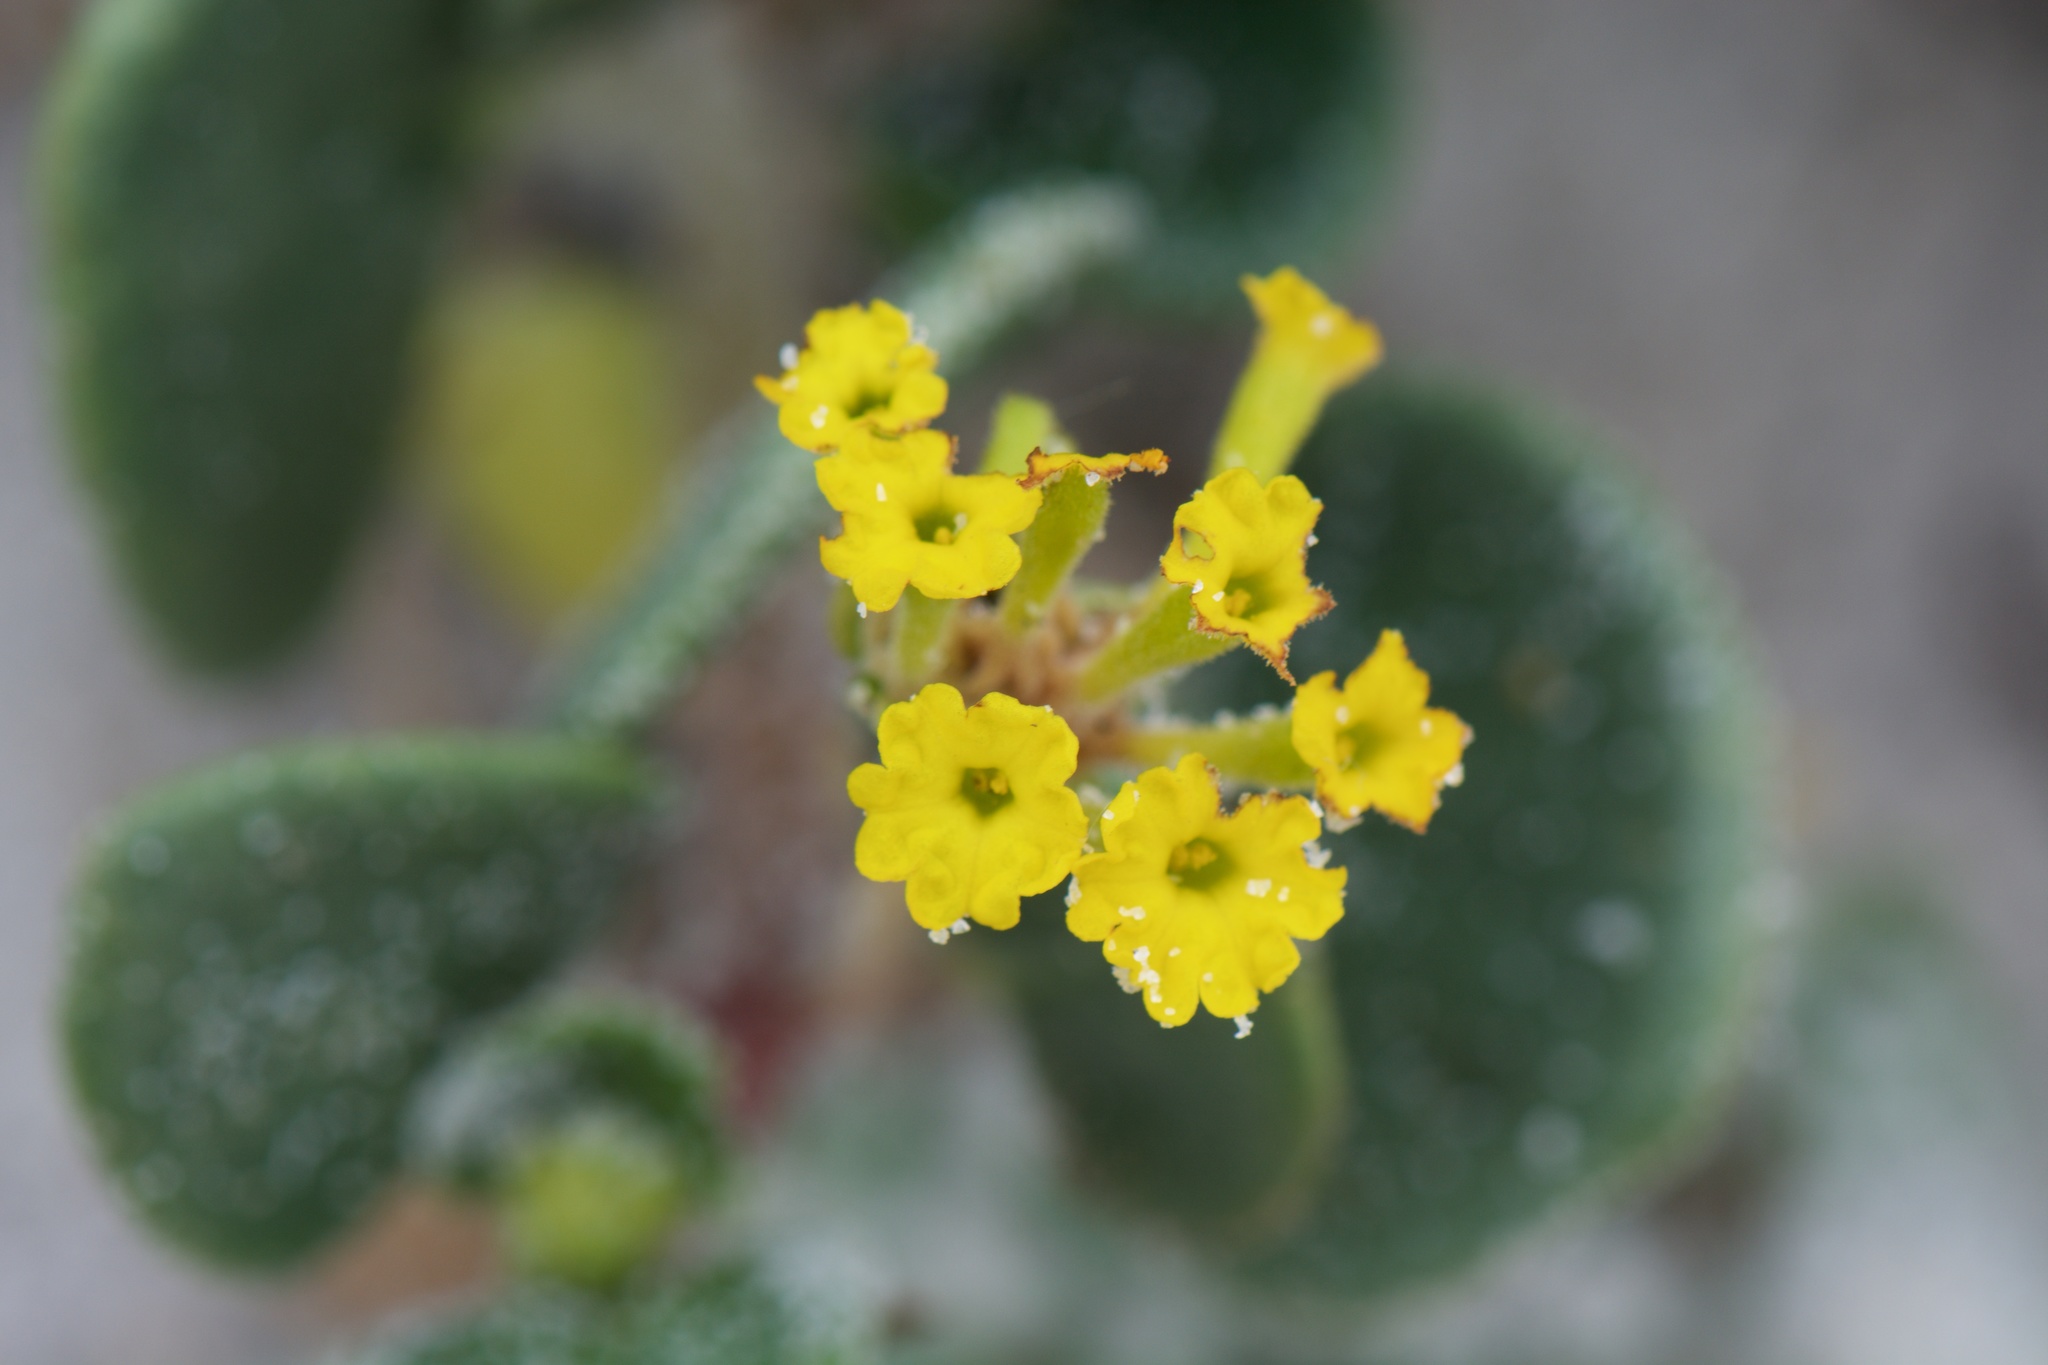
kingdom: Plantae
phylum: Tracheophyta
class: Magnoliopsida
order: Caryophyllales
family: Nyctaginaceae
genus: Abronia
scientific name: Abronia latifolia
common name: Yellow sand-verbena
